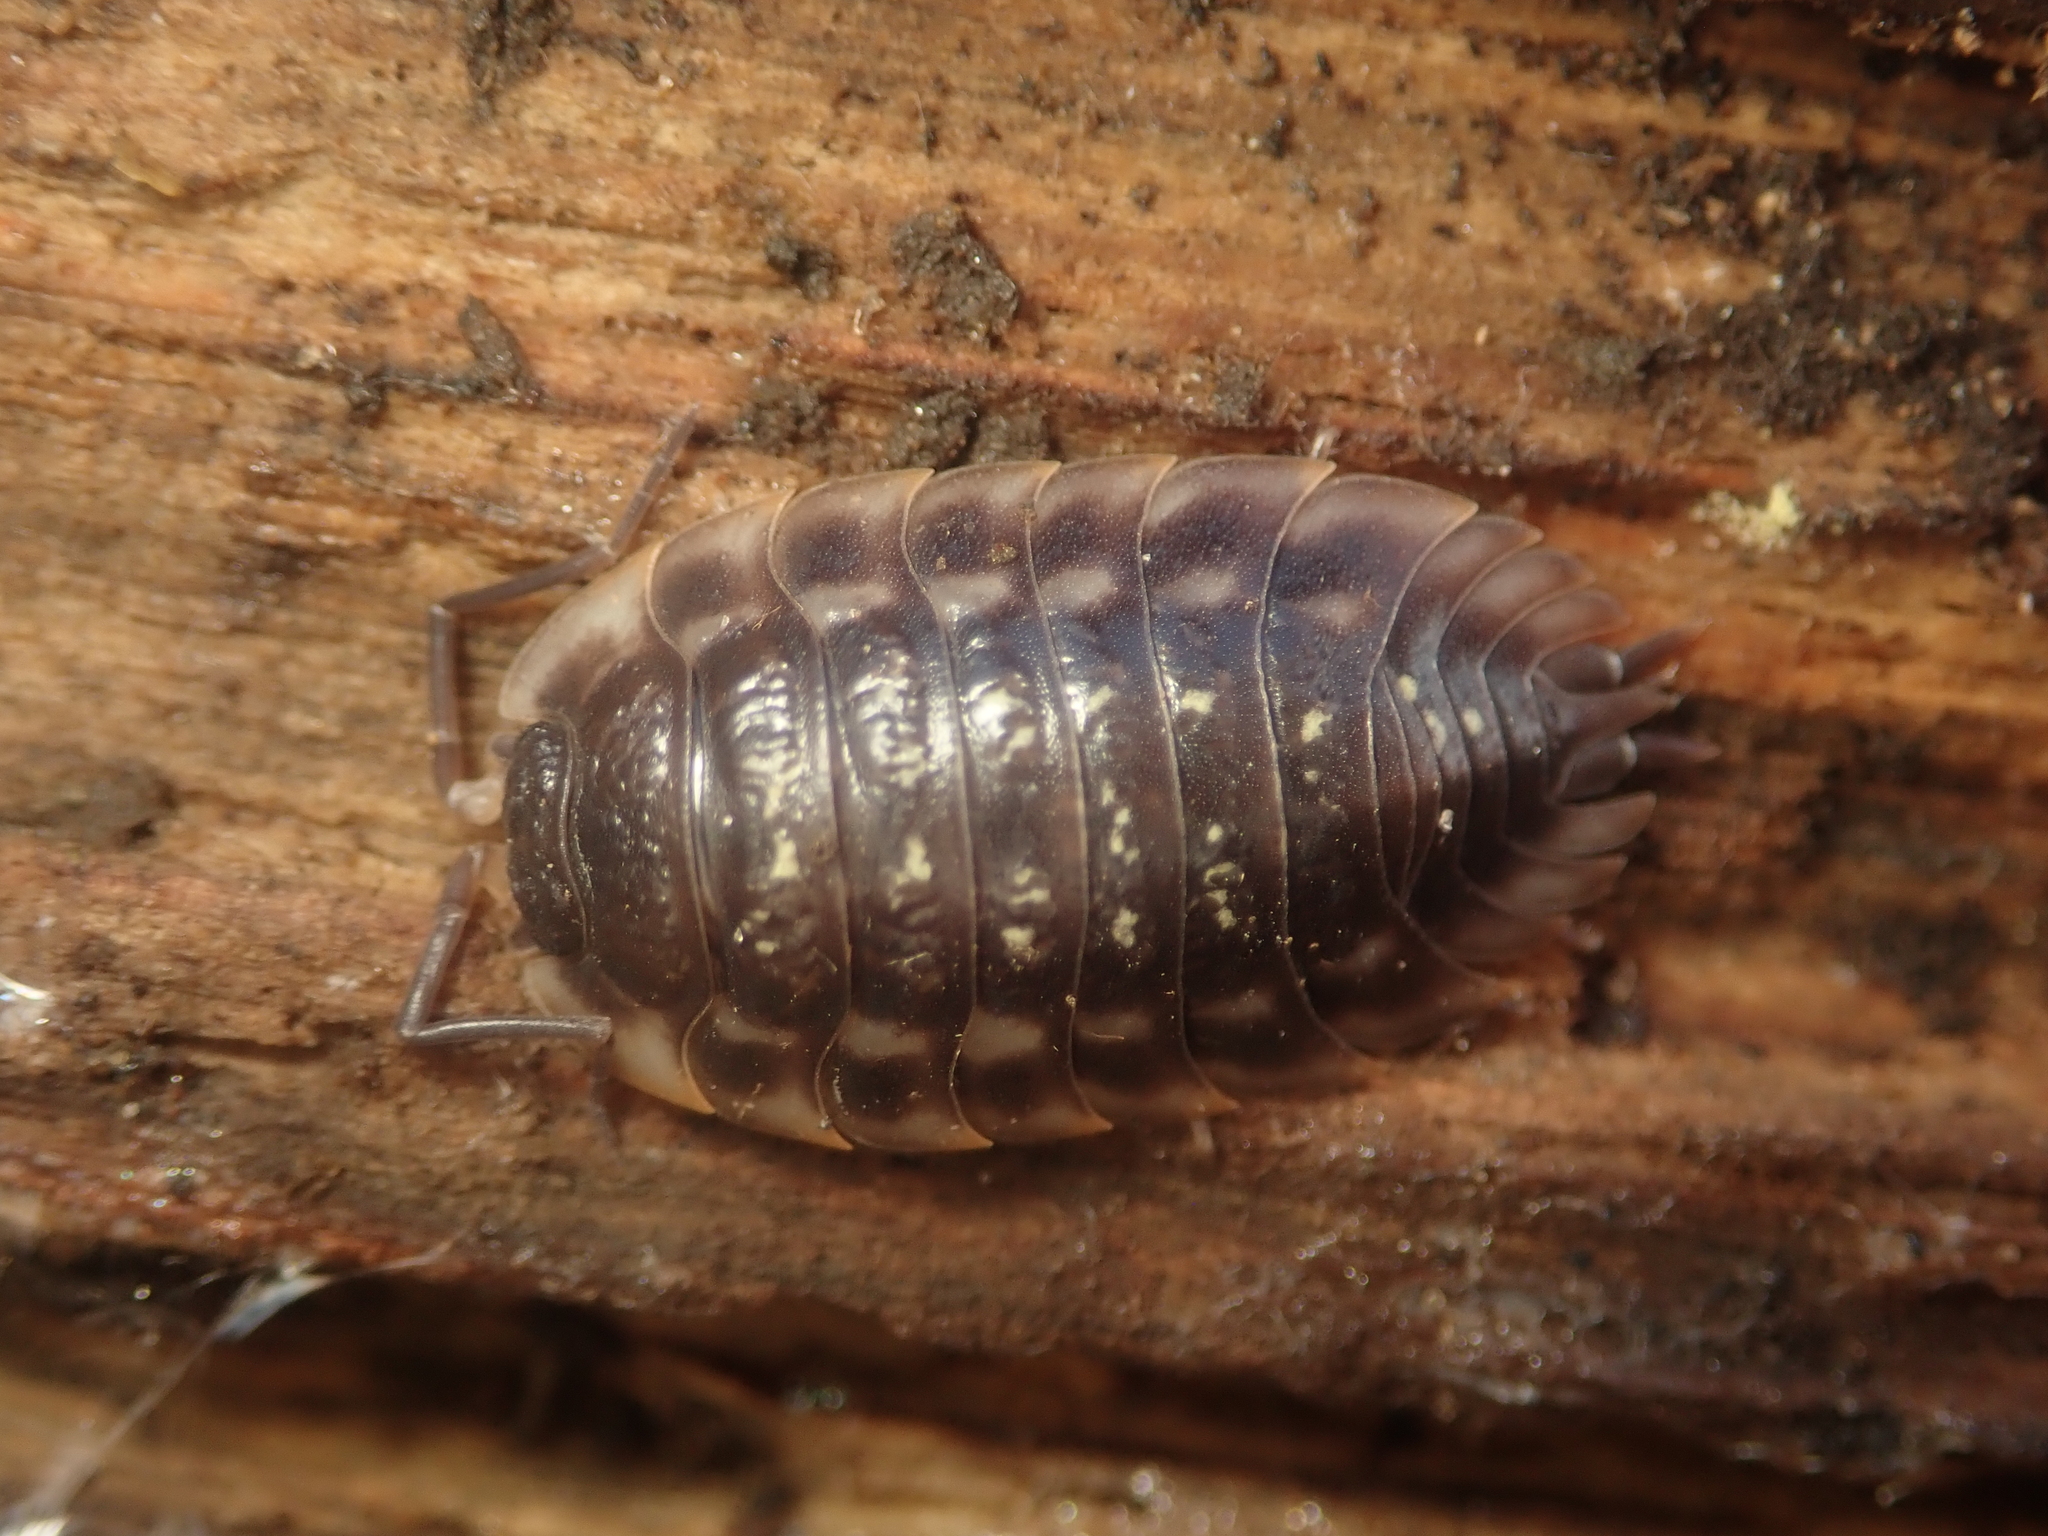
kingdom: Animalia
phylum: Arthropoda
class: Malacostraca
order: Isopoda
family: Oniscidae
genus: Oniscus
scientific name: Oniscus asellus
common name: Common shiny woodlouse
